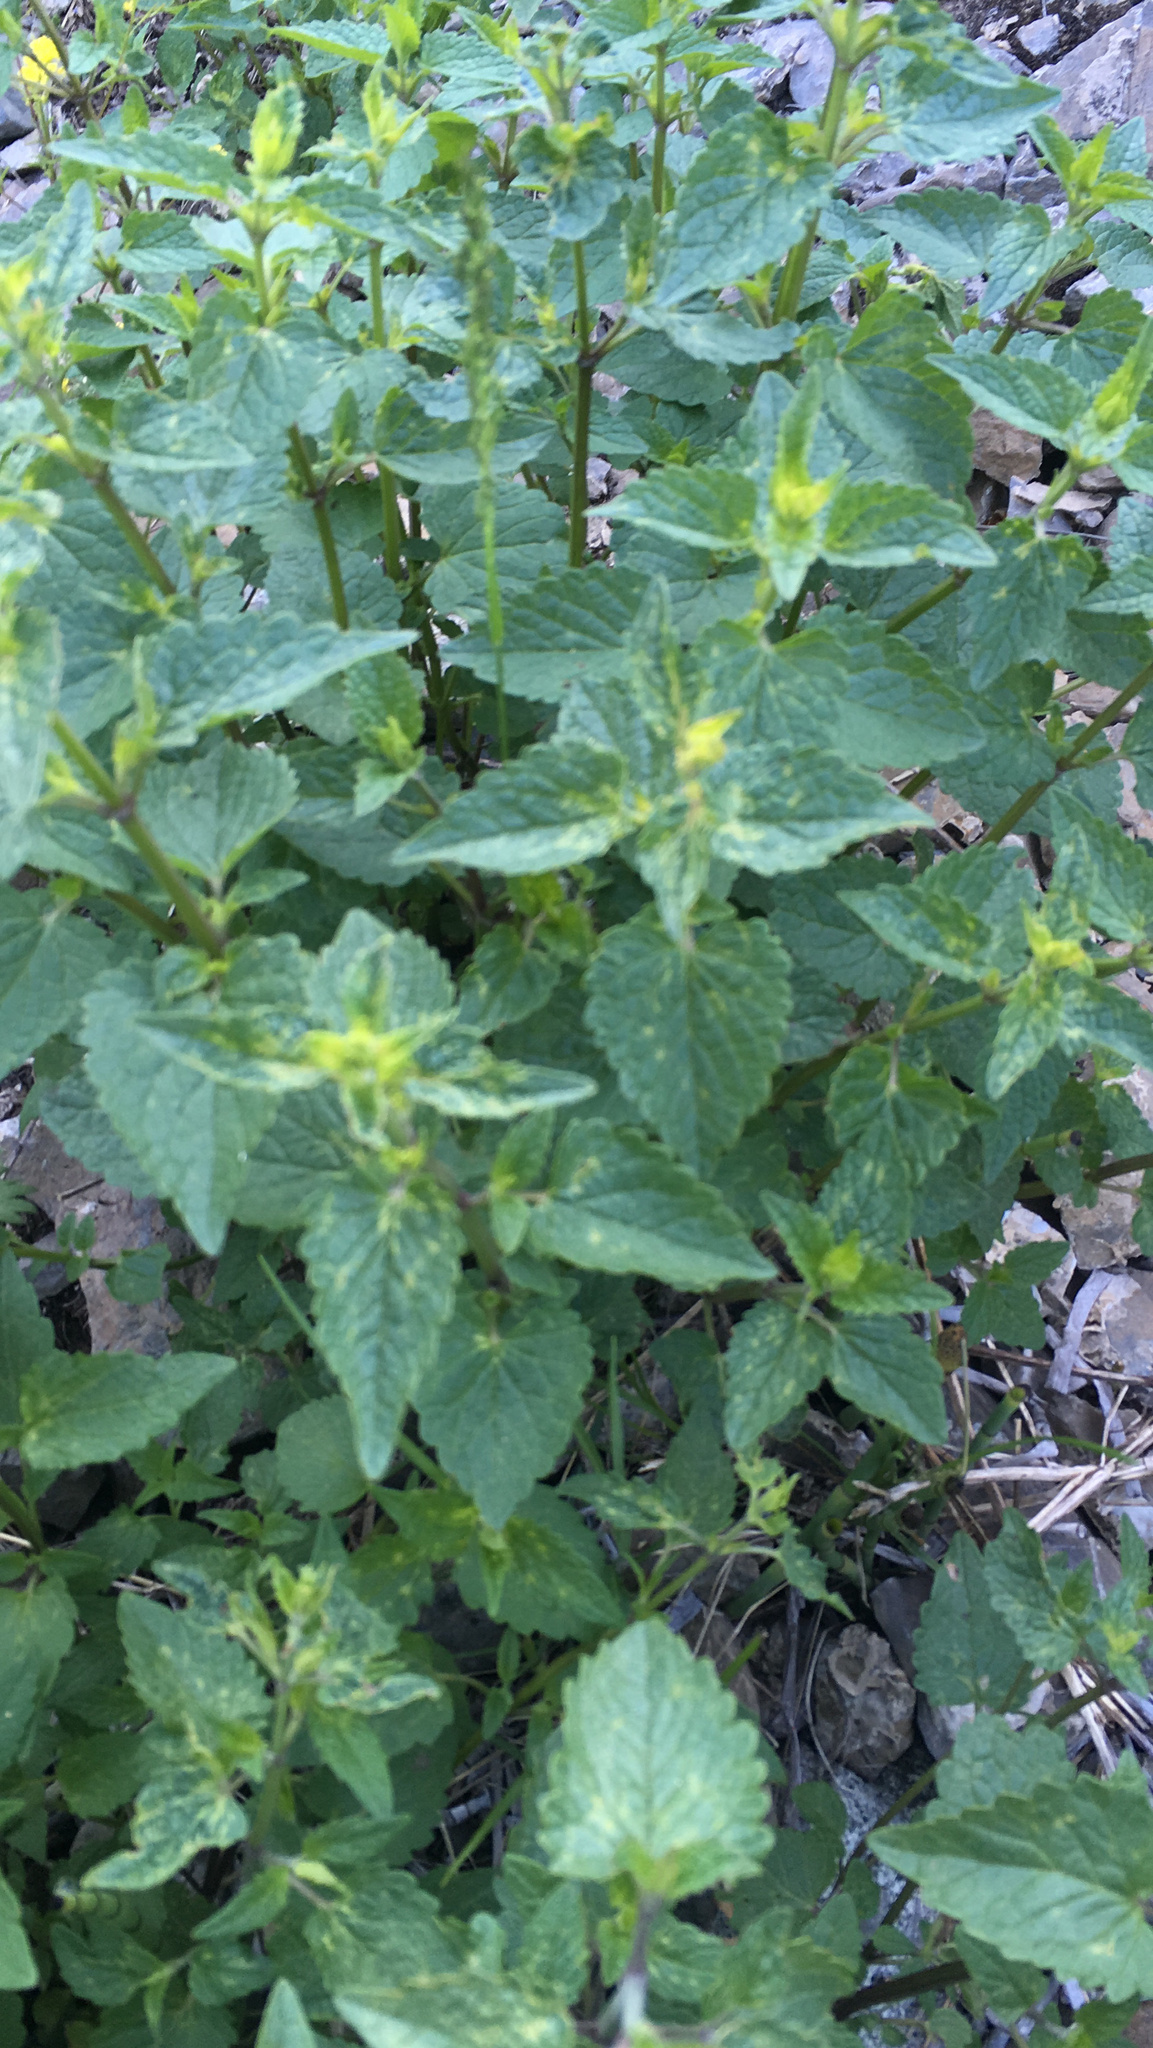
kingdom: Plantae
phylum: Tracheophyta
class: Magnoliopsida
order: Lamiales
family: Lamiaceae
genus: Agastache
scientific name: Agastache urticifolia
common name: Horsemint giant hyssop
